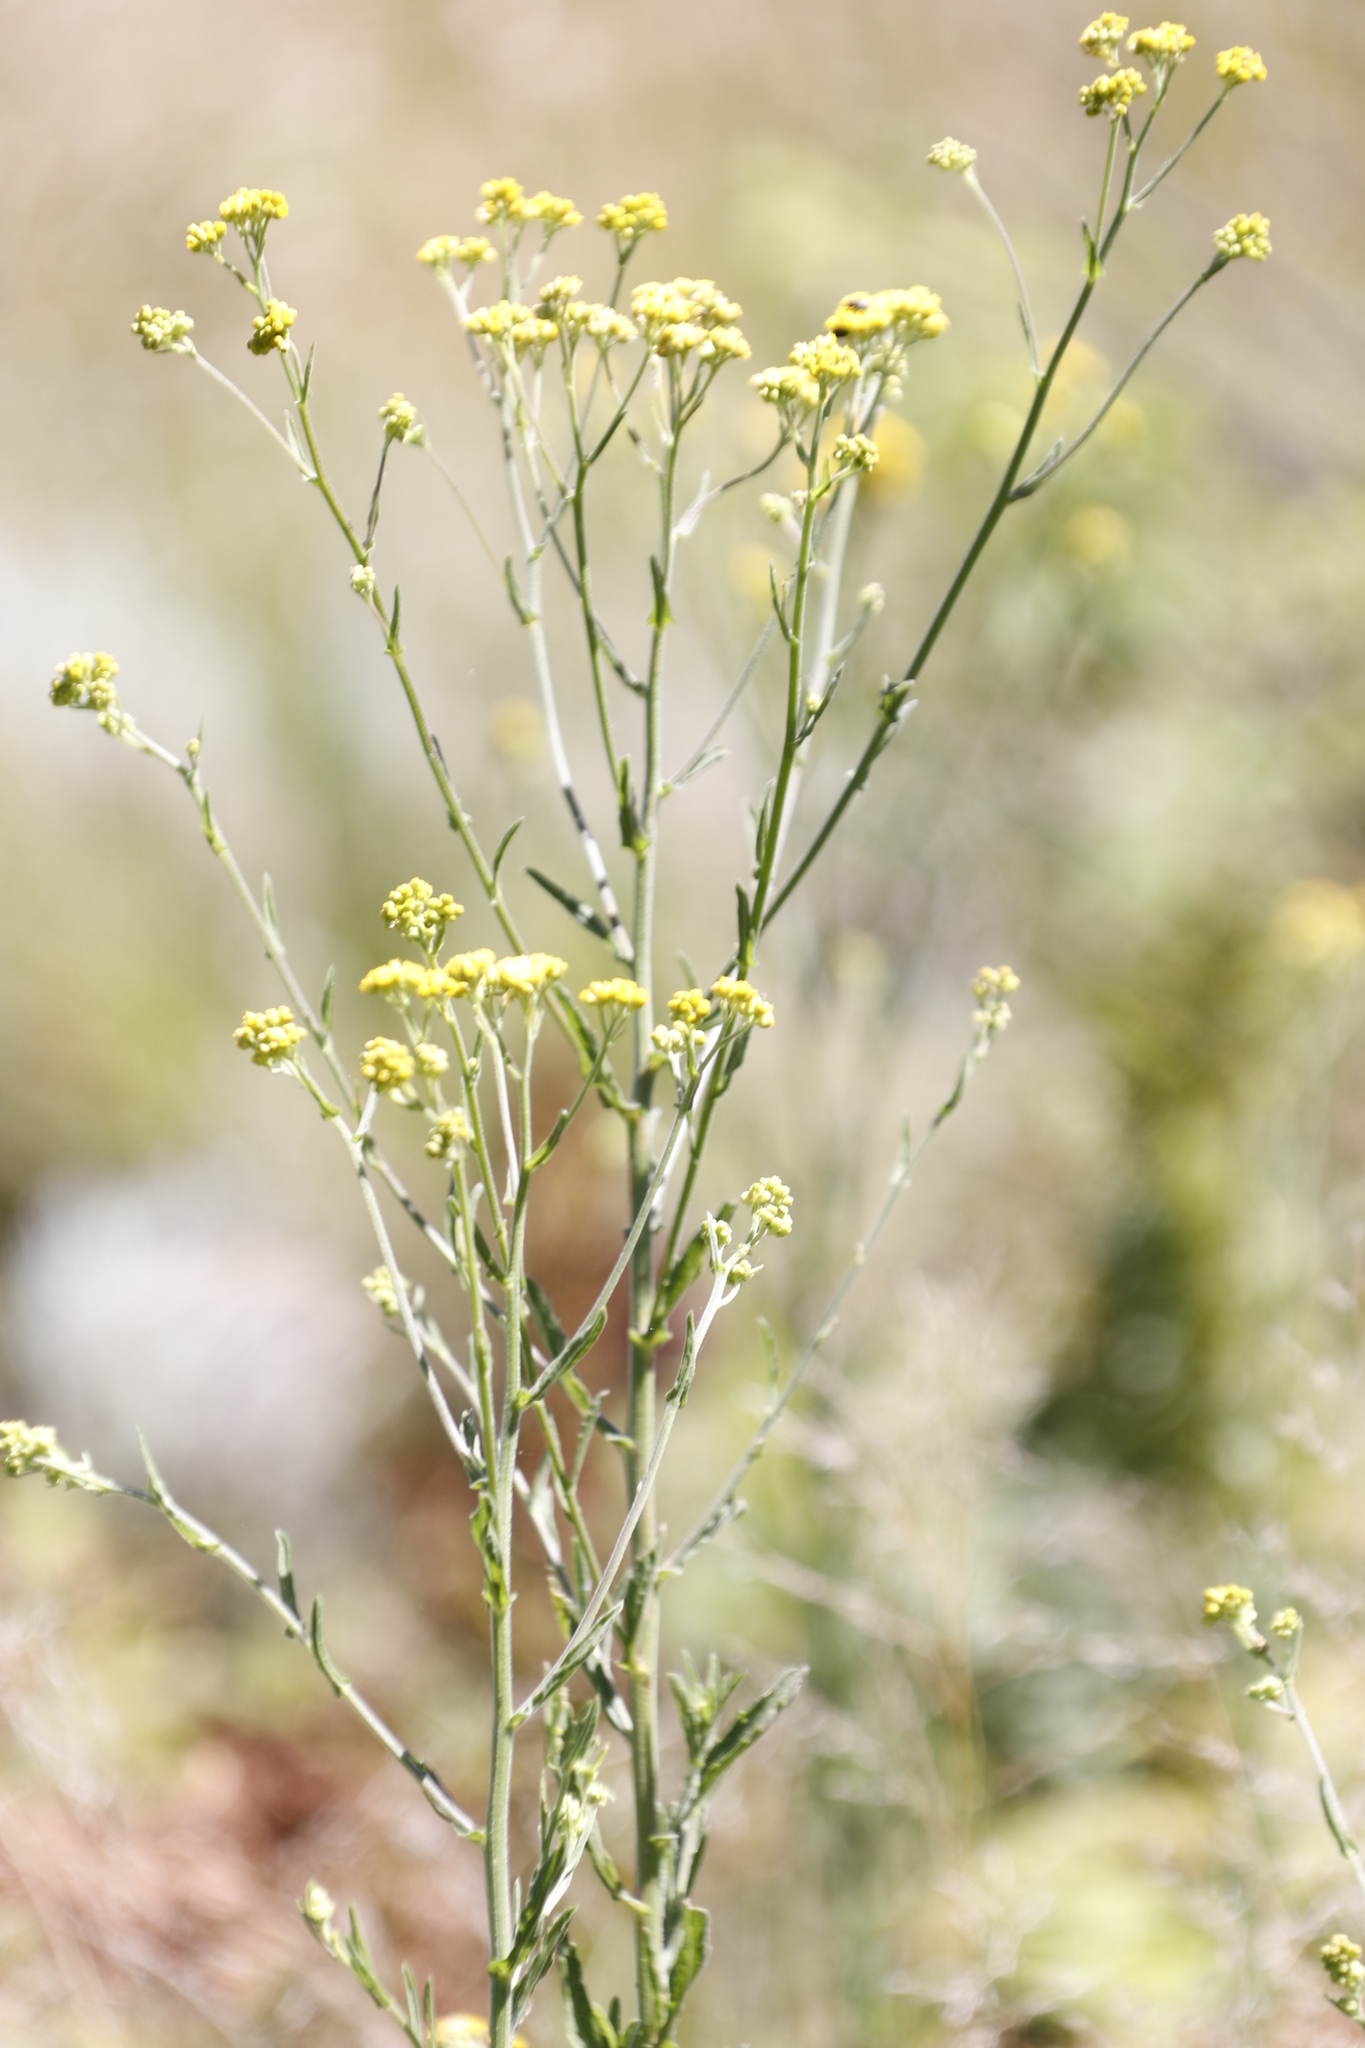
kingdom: Plantae
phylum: Tracheophyta
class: Magnoliopsida
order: Asterales
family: Asteraceae
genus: Nidorella
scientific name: Nidorella undulata
